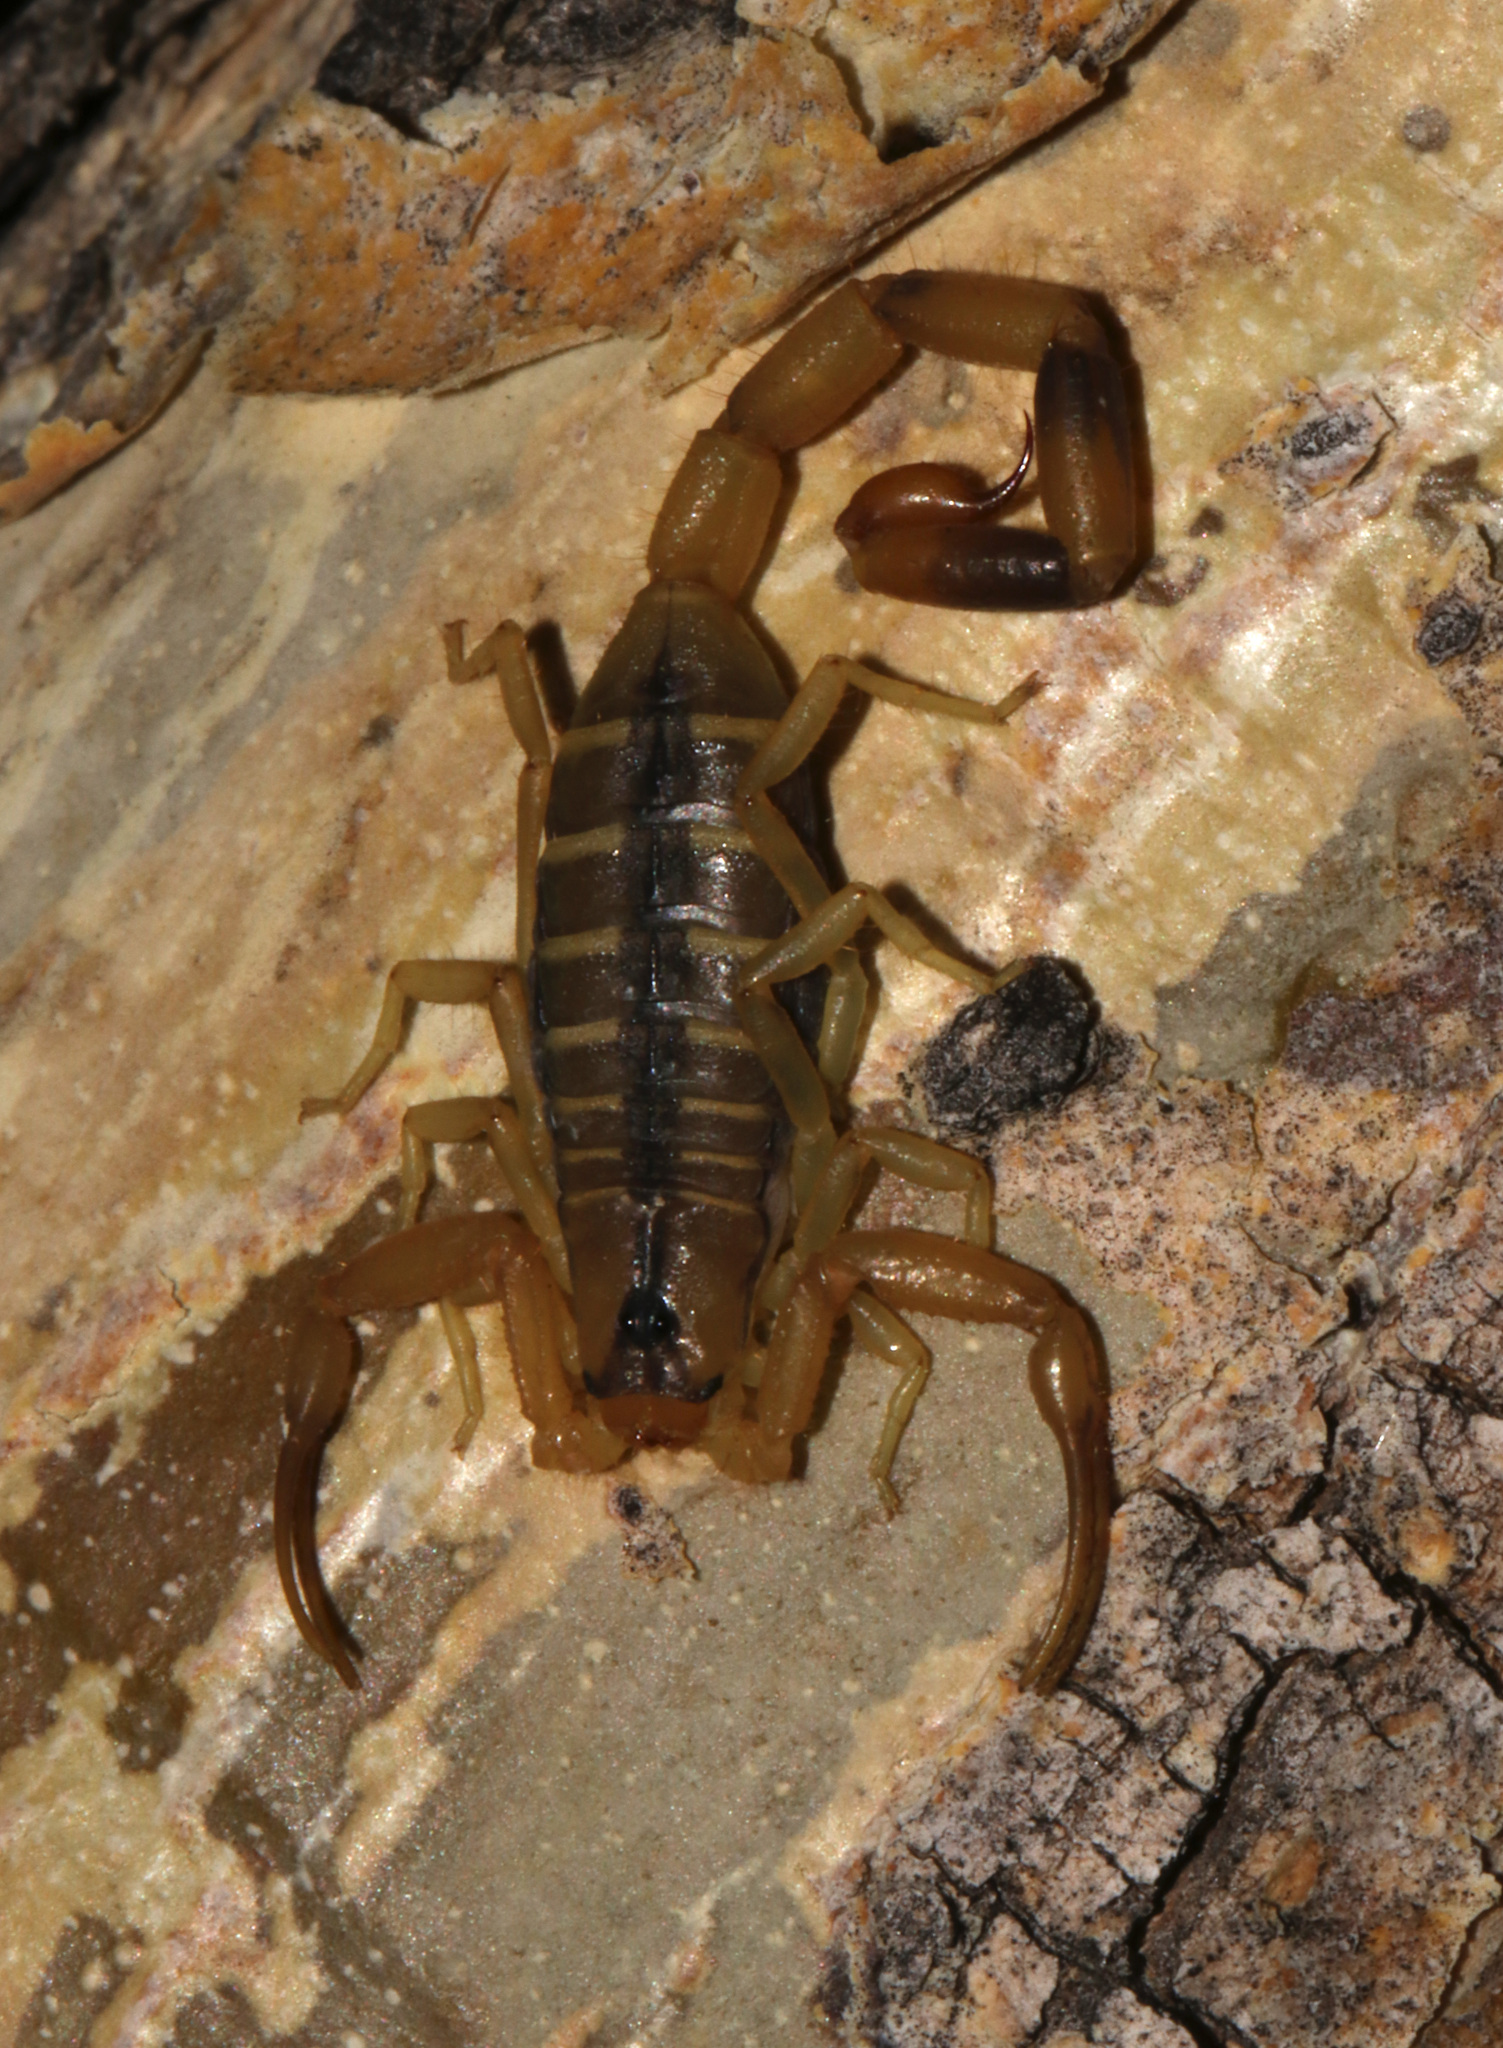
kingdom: Animalia
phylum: Arthropoda
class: Arachnida
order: Scorpiones
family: Buthidae
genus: Uroplectes
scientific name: Uroplectes otjimbinguensis
